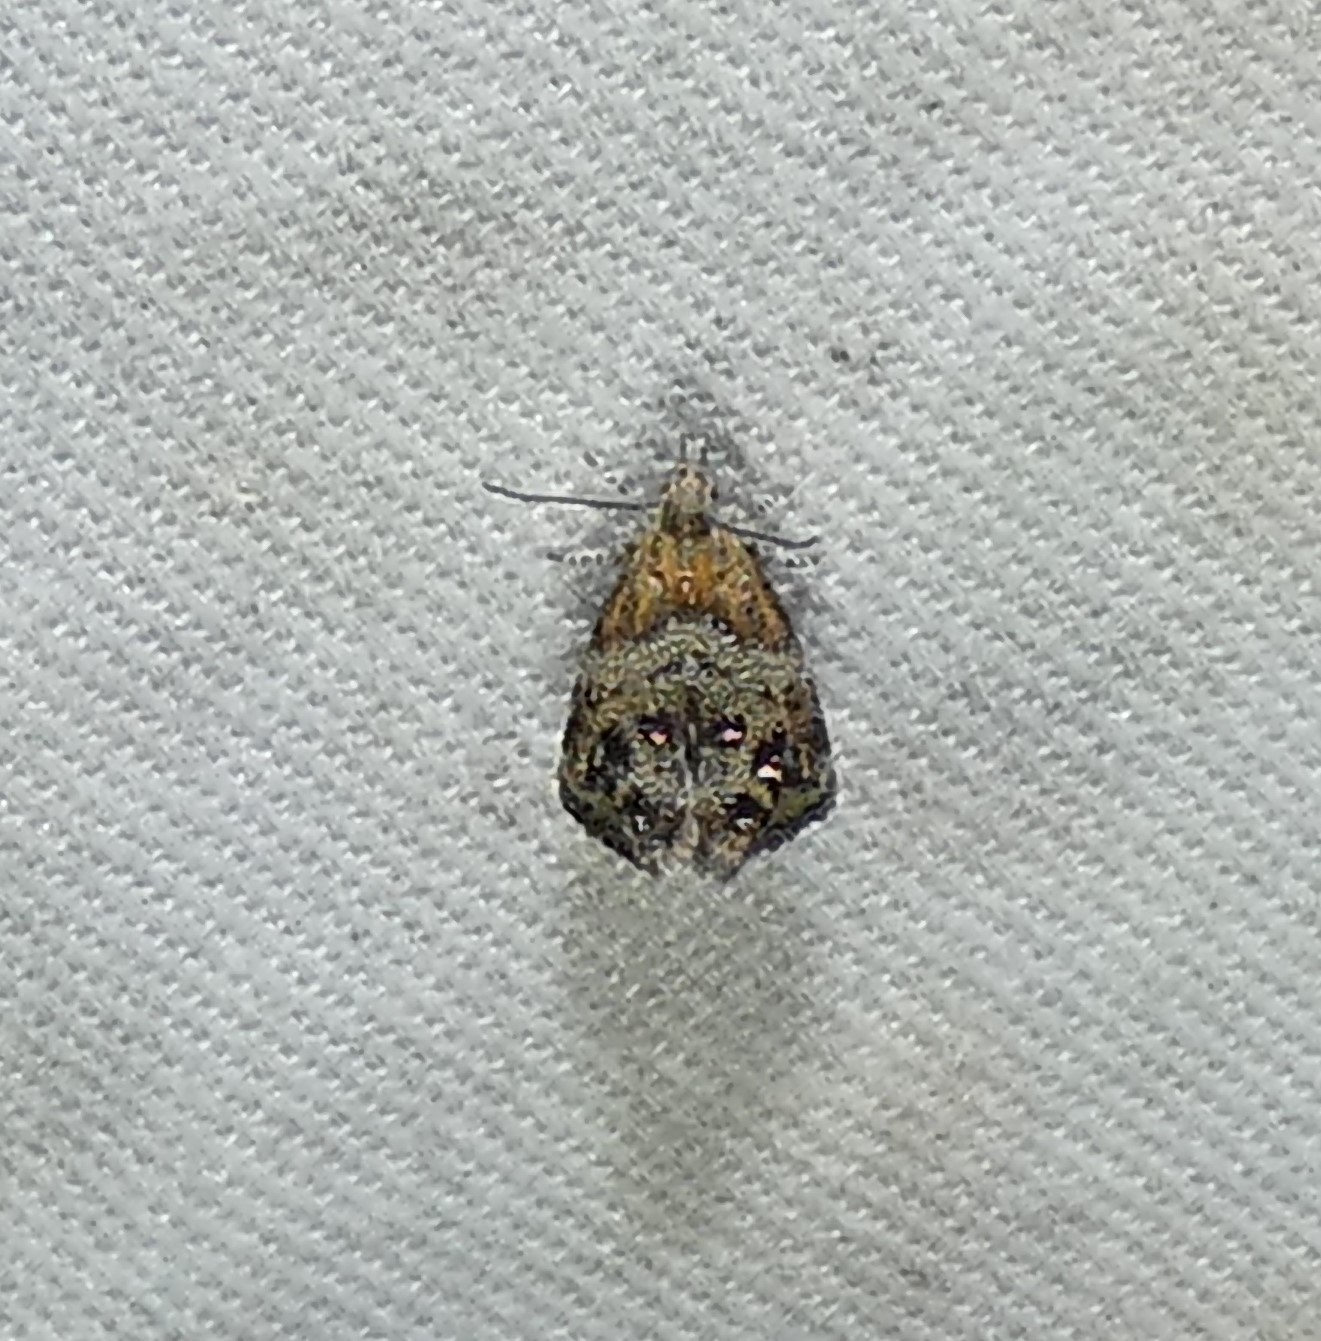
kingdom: Animalia
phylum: Arthropoda
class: Insecta
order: Lepidoptera
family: Choreutidae
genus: Tebenna
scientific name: Tebenna gnaphaliella
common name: Everlasting tebenna moth
